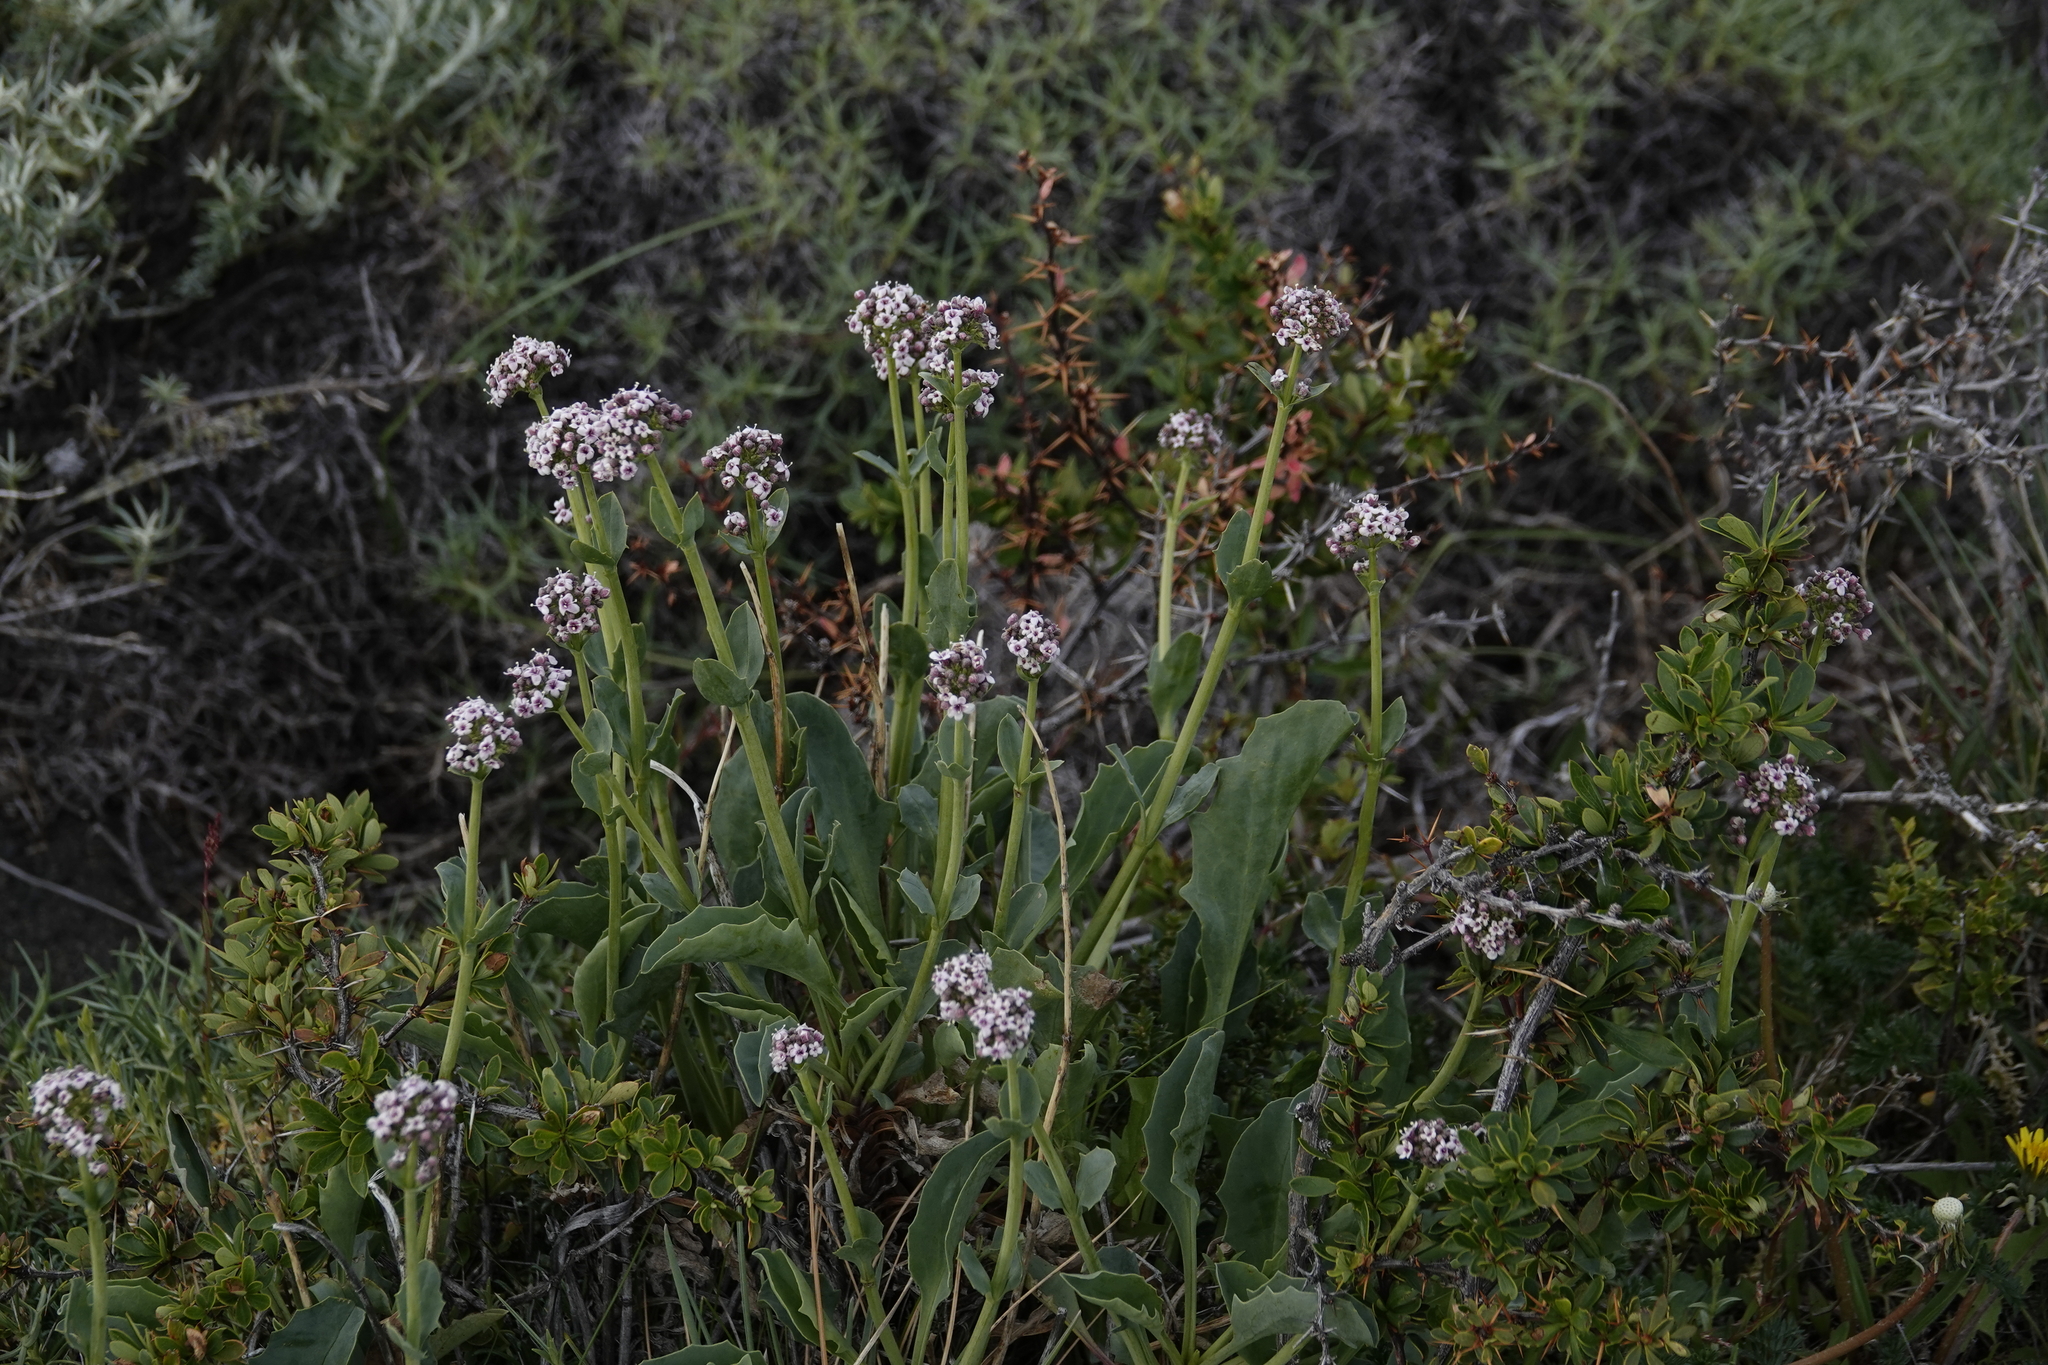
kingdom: Plantae
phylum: Tracheophyta
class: Magnoliopsida
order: Dipsacales
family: Caprifoliaceae
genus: Valeriana
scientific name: Valeriana carnosa
